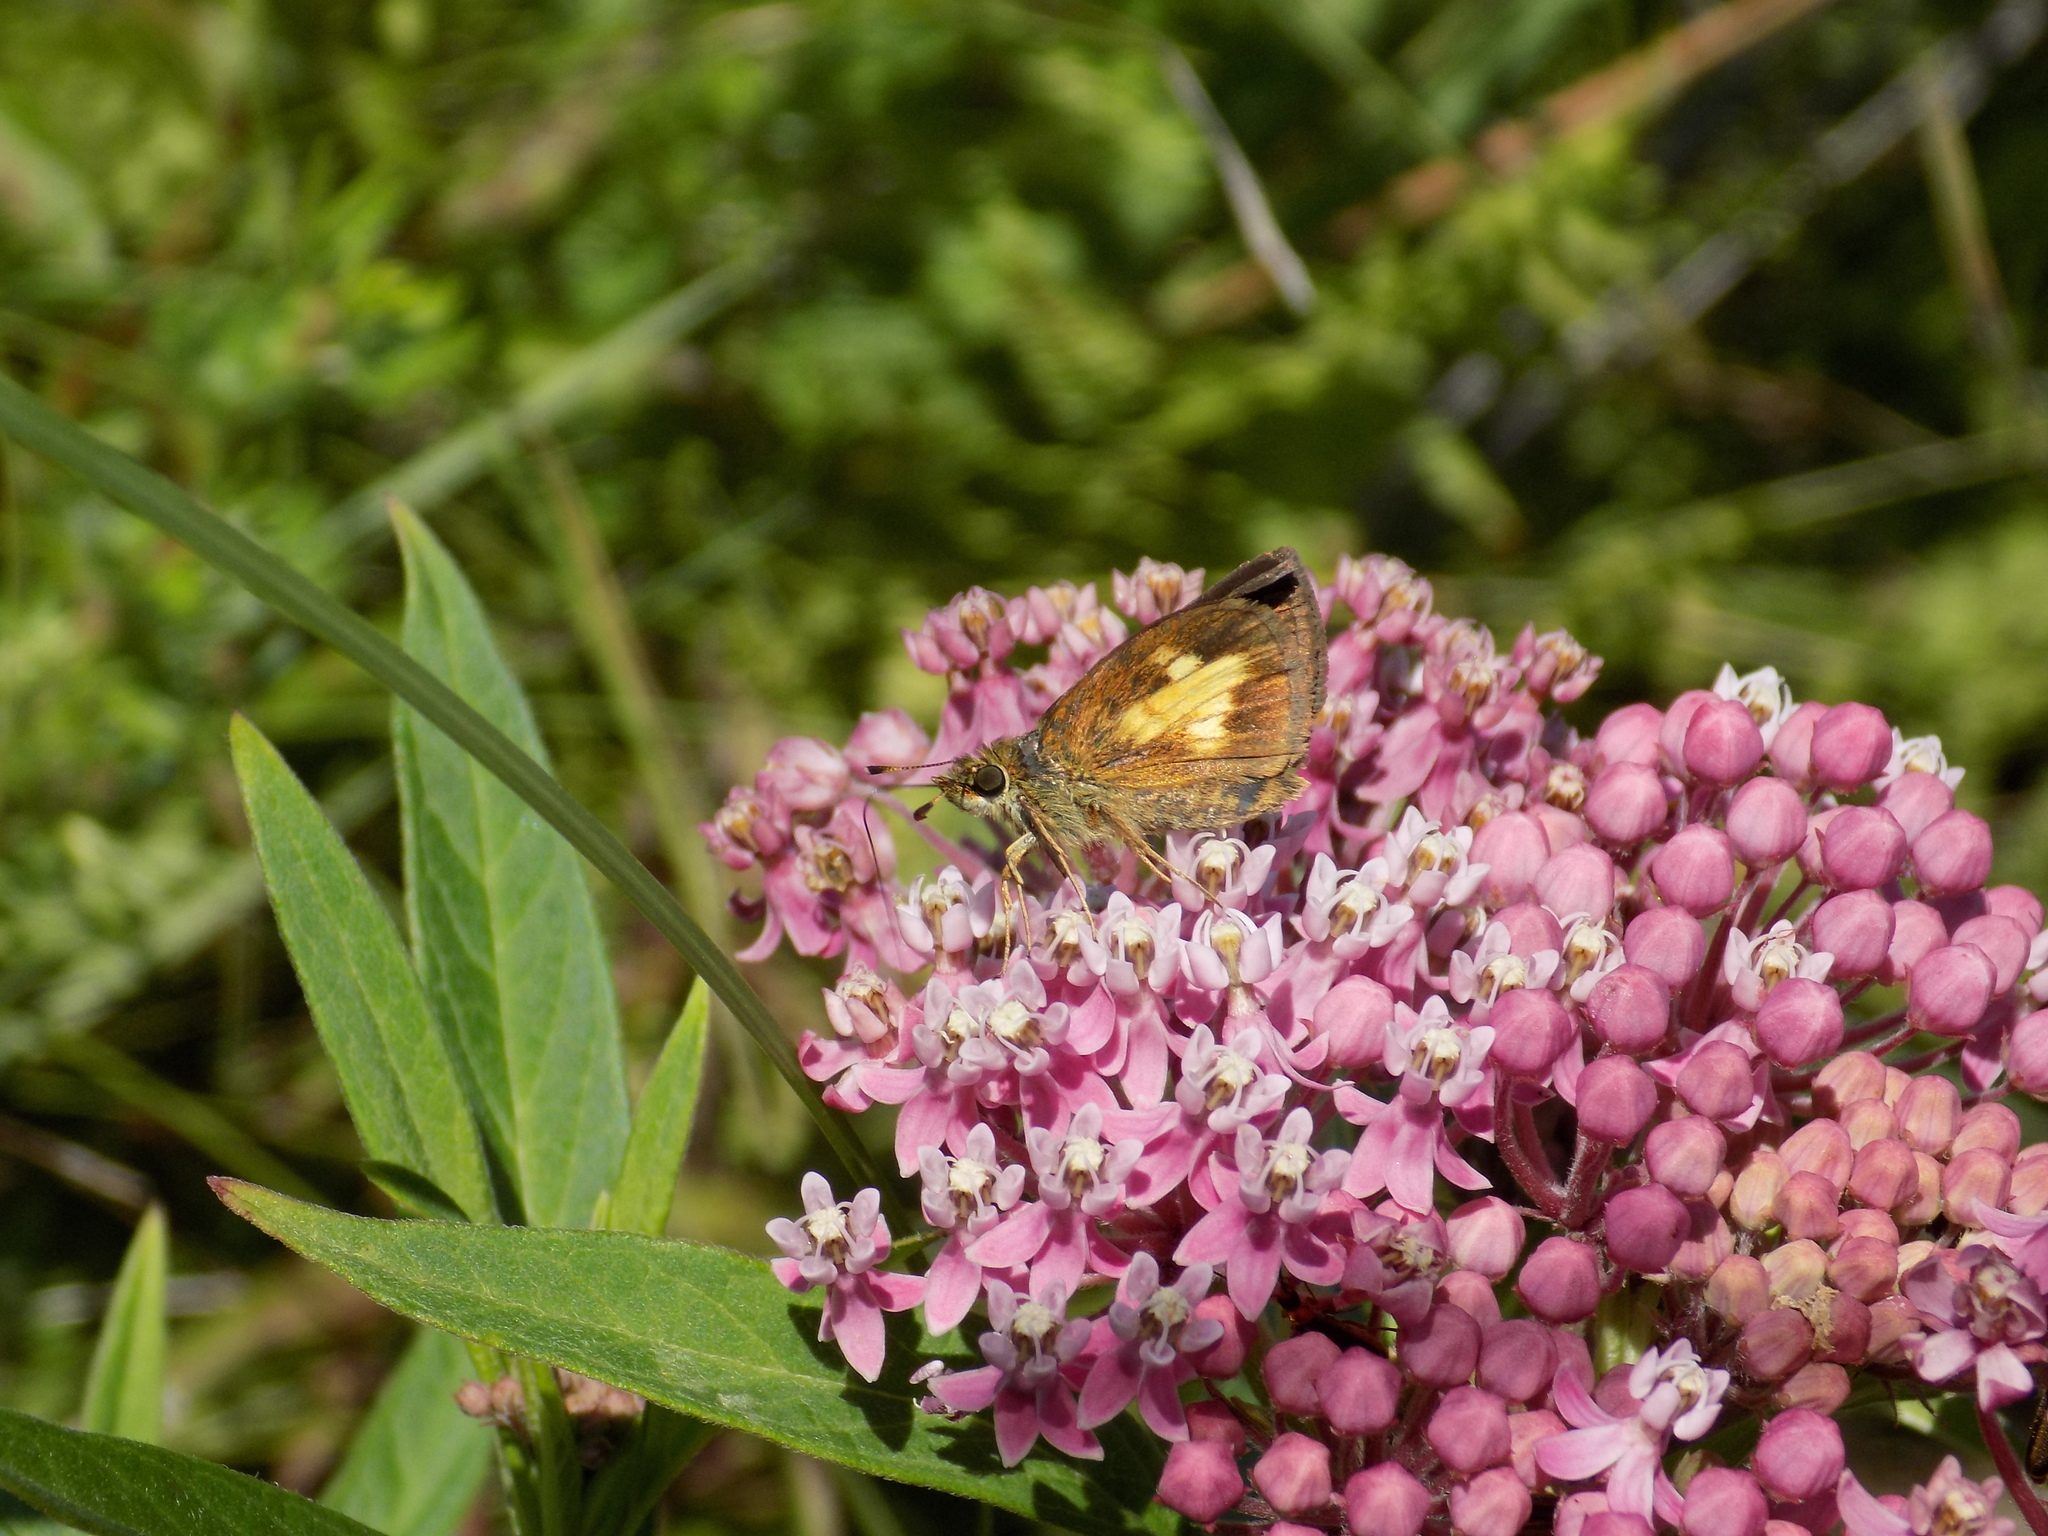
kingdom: Animalia
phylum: Arthropoda
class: Insecta
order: Lepidoptera
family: Hesperiidae
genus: Poanes
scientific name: Poanes massasoit
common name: Mulberrywing
